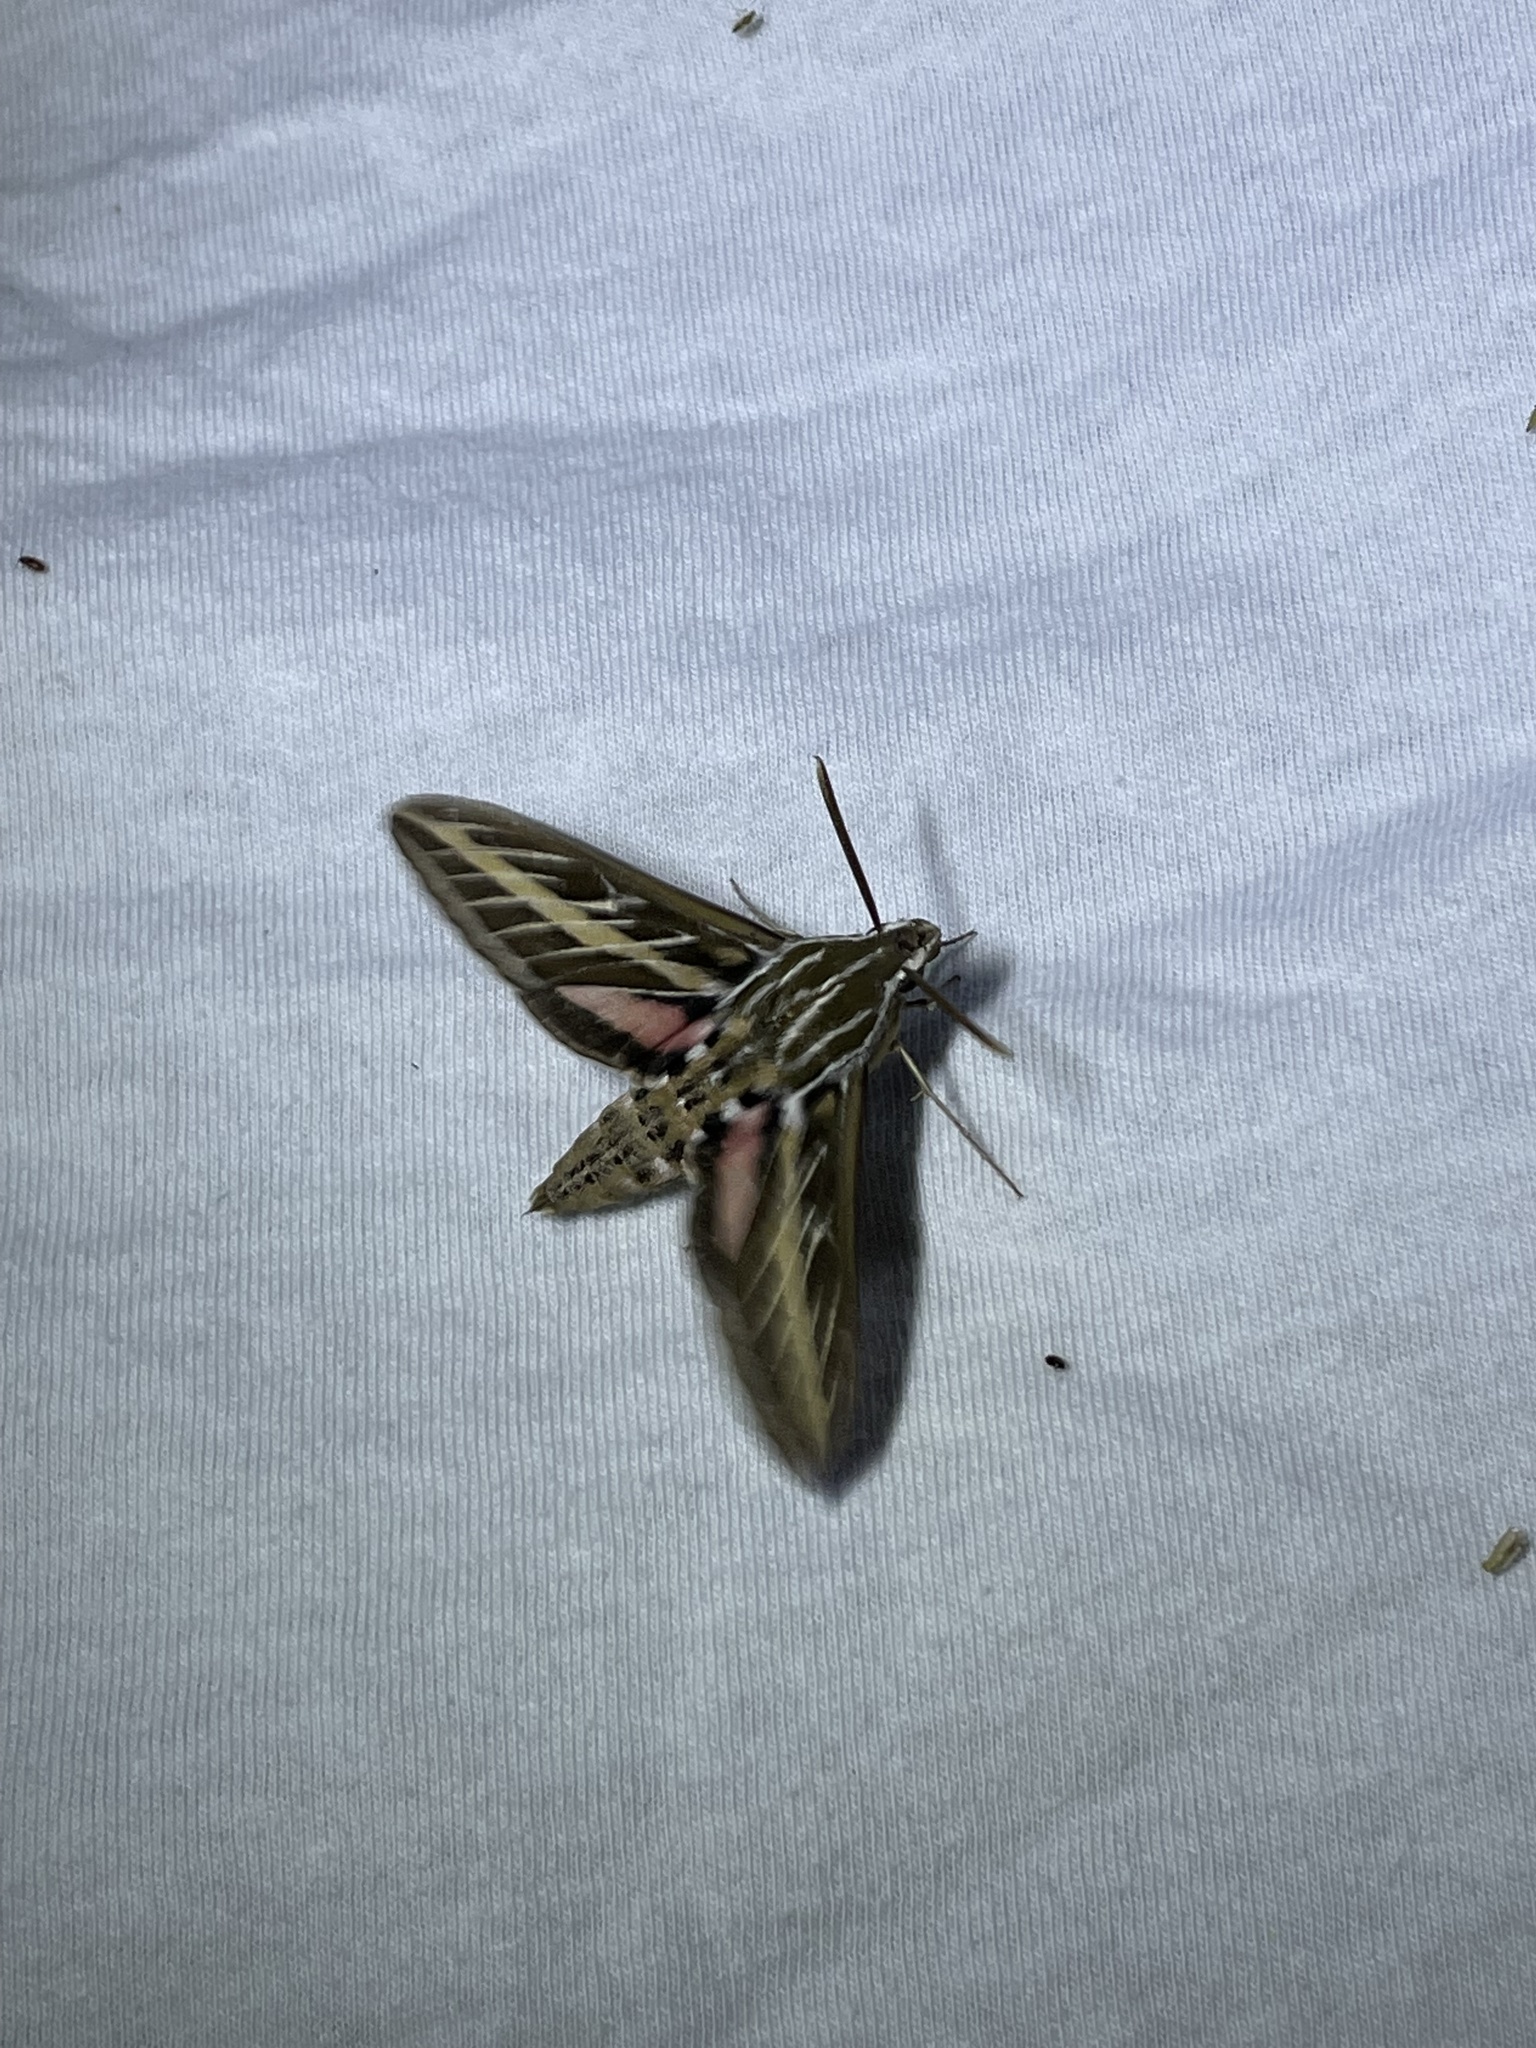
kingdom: Animalia
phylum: Arthropoda
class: Insecta
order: Lepidoptera
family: Sphingidae
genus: Hyles
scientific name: Hyles lineata
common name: White-lined sphinx
